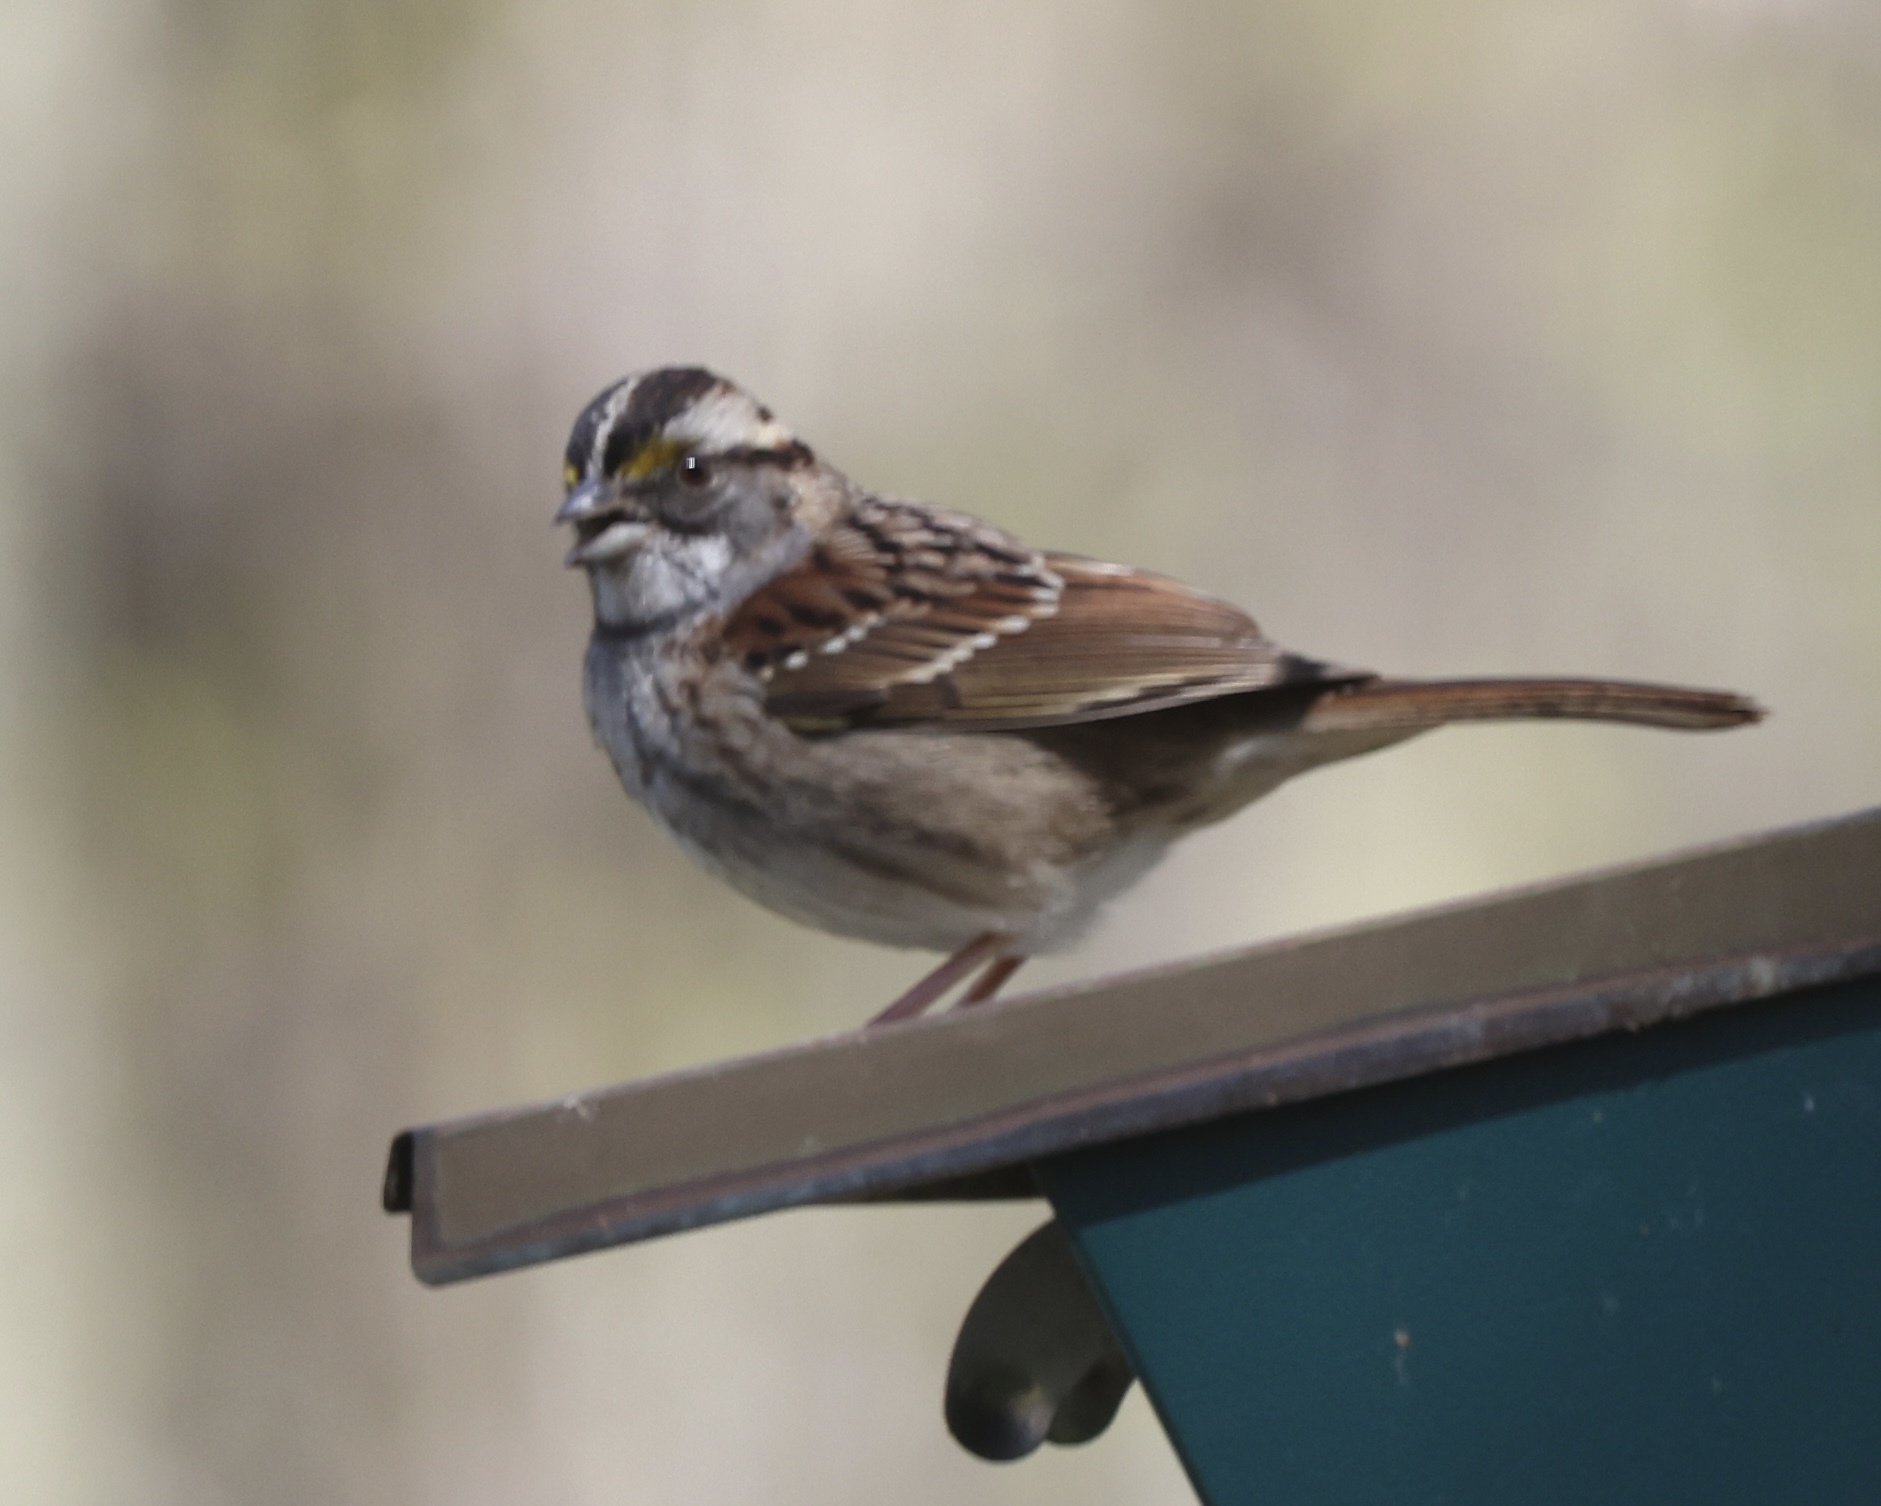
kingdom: Animalia
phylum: Chordata
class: Aves
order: Passeriformes
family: Passerellidae
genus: Zonotrichia
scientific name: Zonotrichia albicollis
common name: White-throated sparrow
